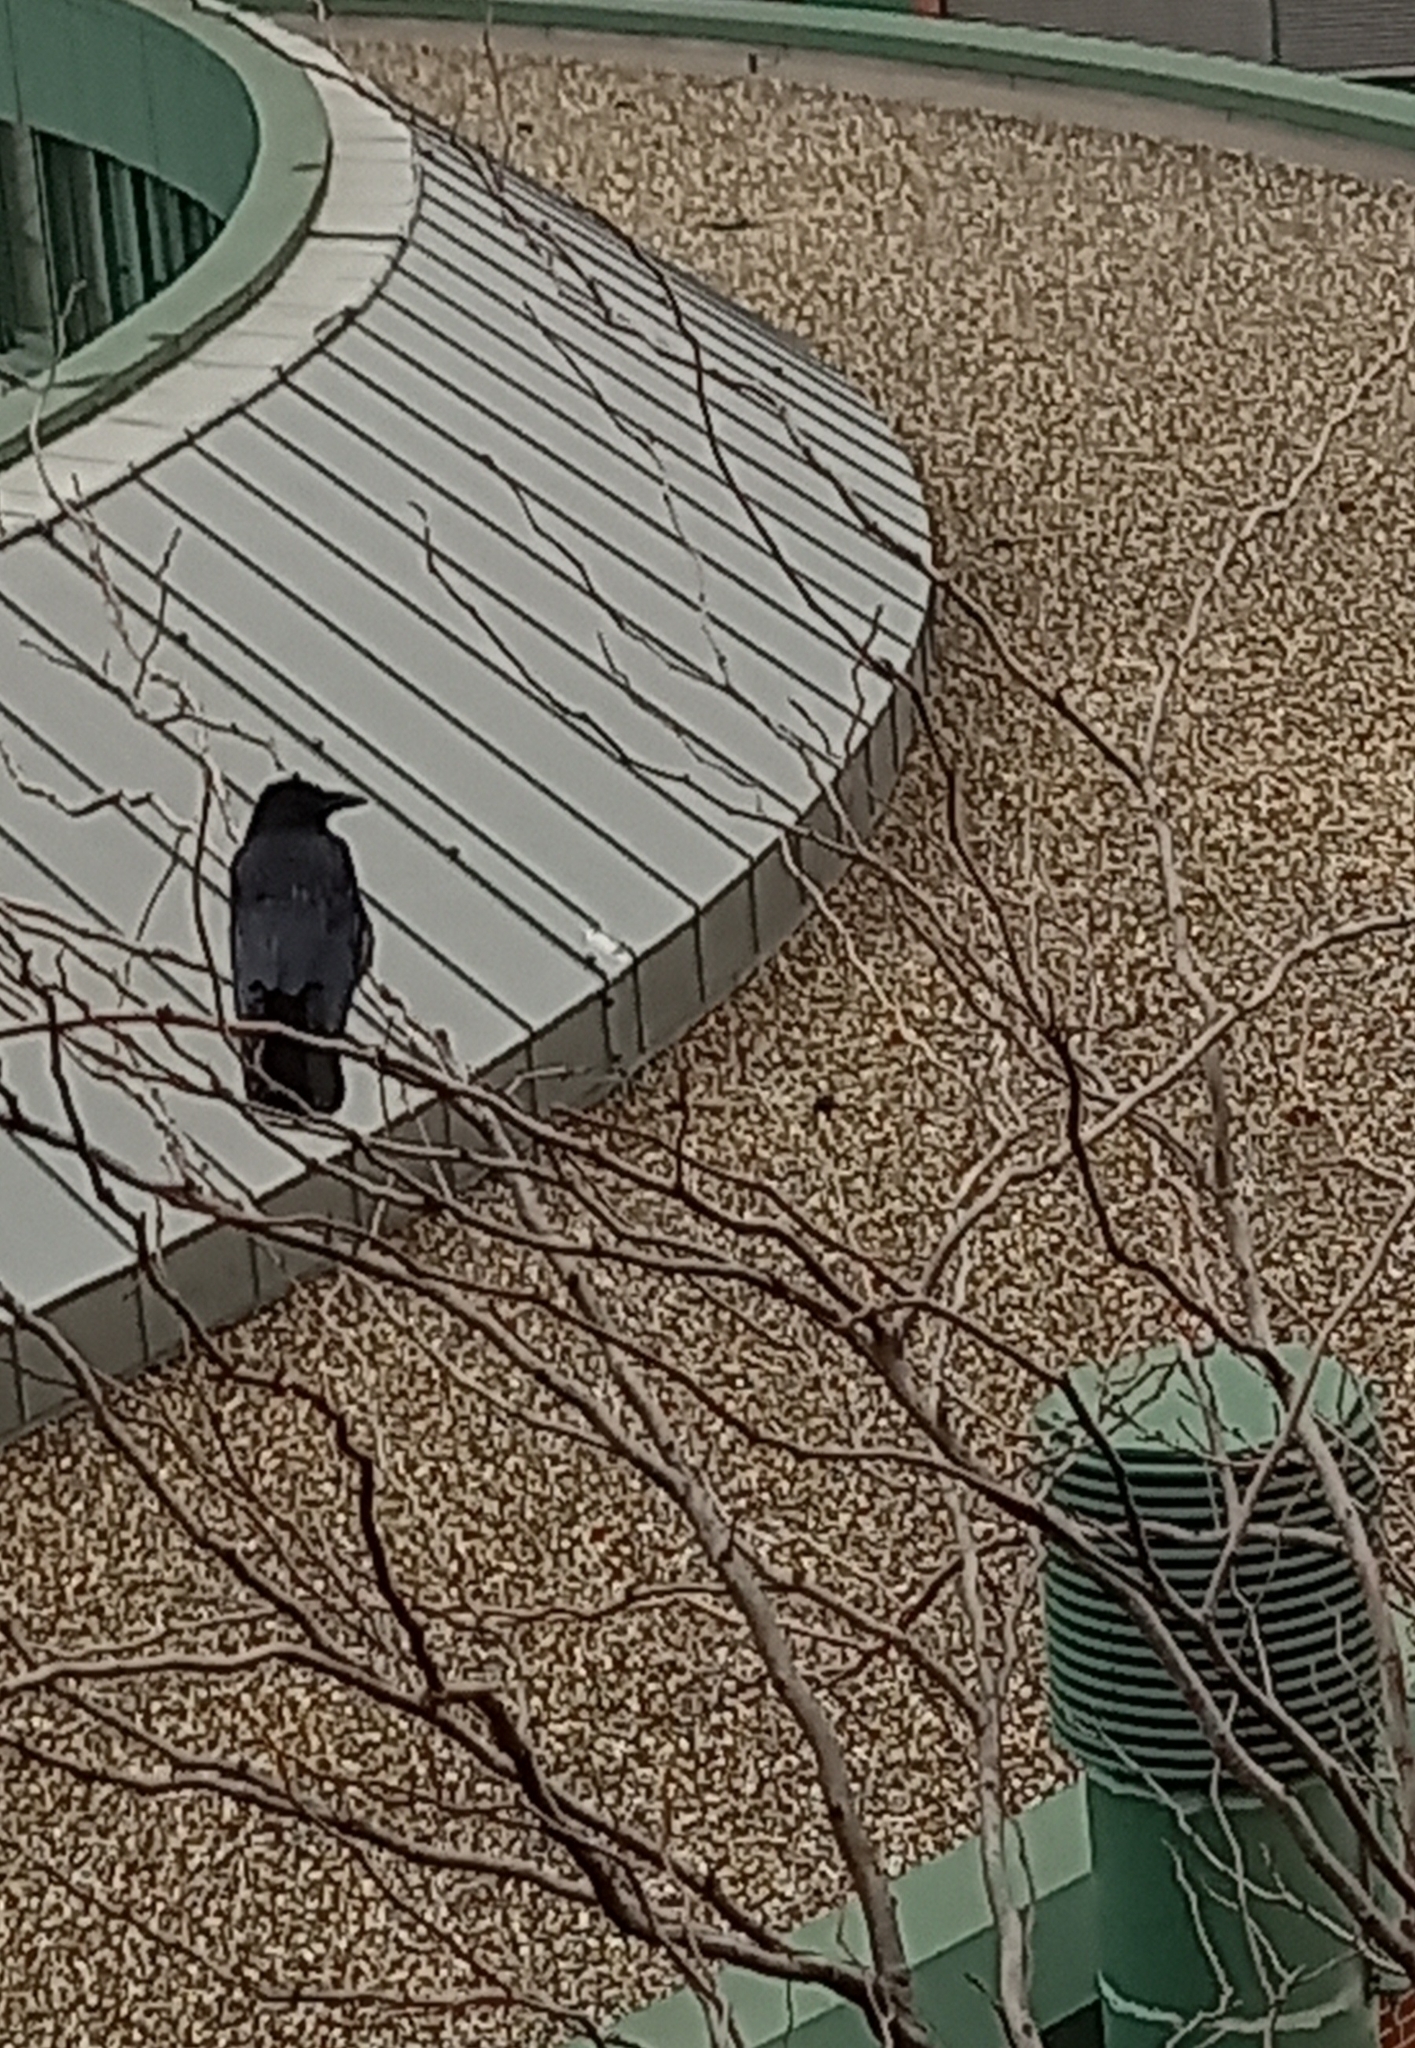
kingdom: Animalia
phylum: Chordata
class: Aves
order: Passeriformes
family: Corvidae
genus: Corvus
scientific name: Corvus corone
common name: Carrion crow
